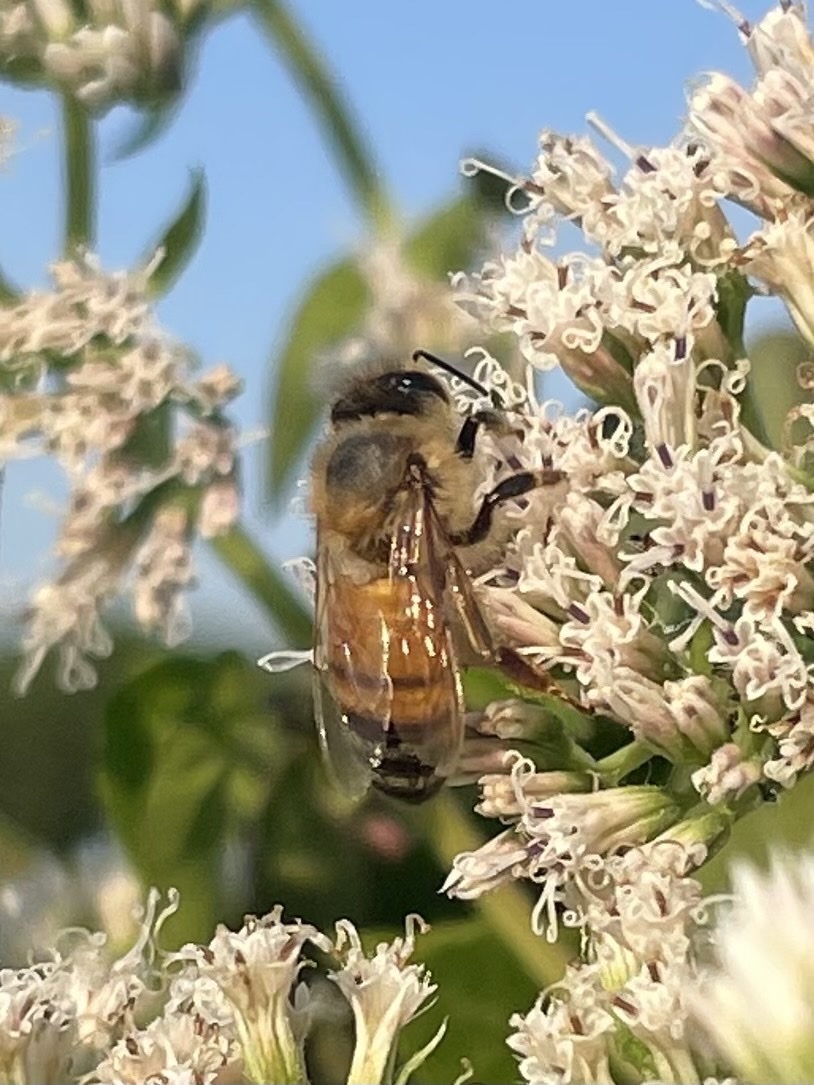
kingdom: Animalia
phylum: Arthropoda
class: Insecta
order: Hymenoptera
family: Apidae
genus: Apis
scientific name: Apis mellifera
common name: Honey bee
